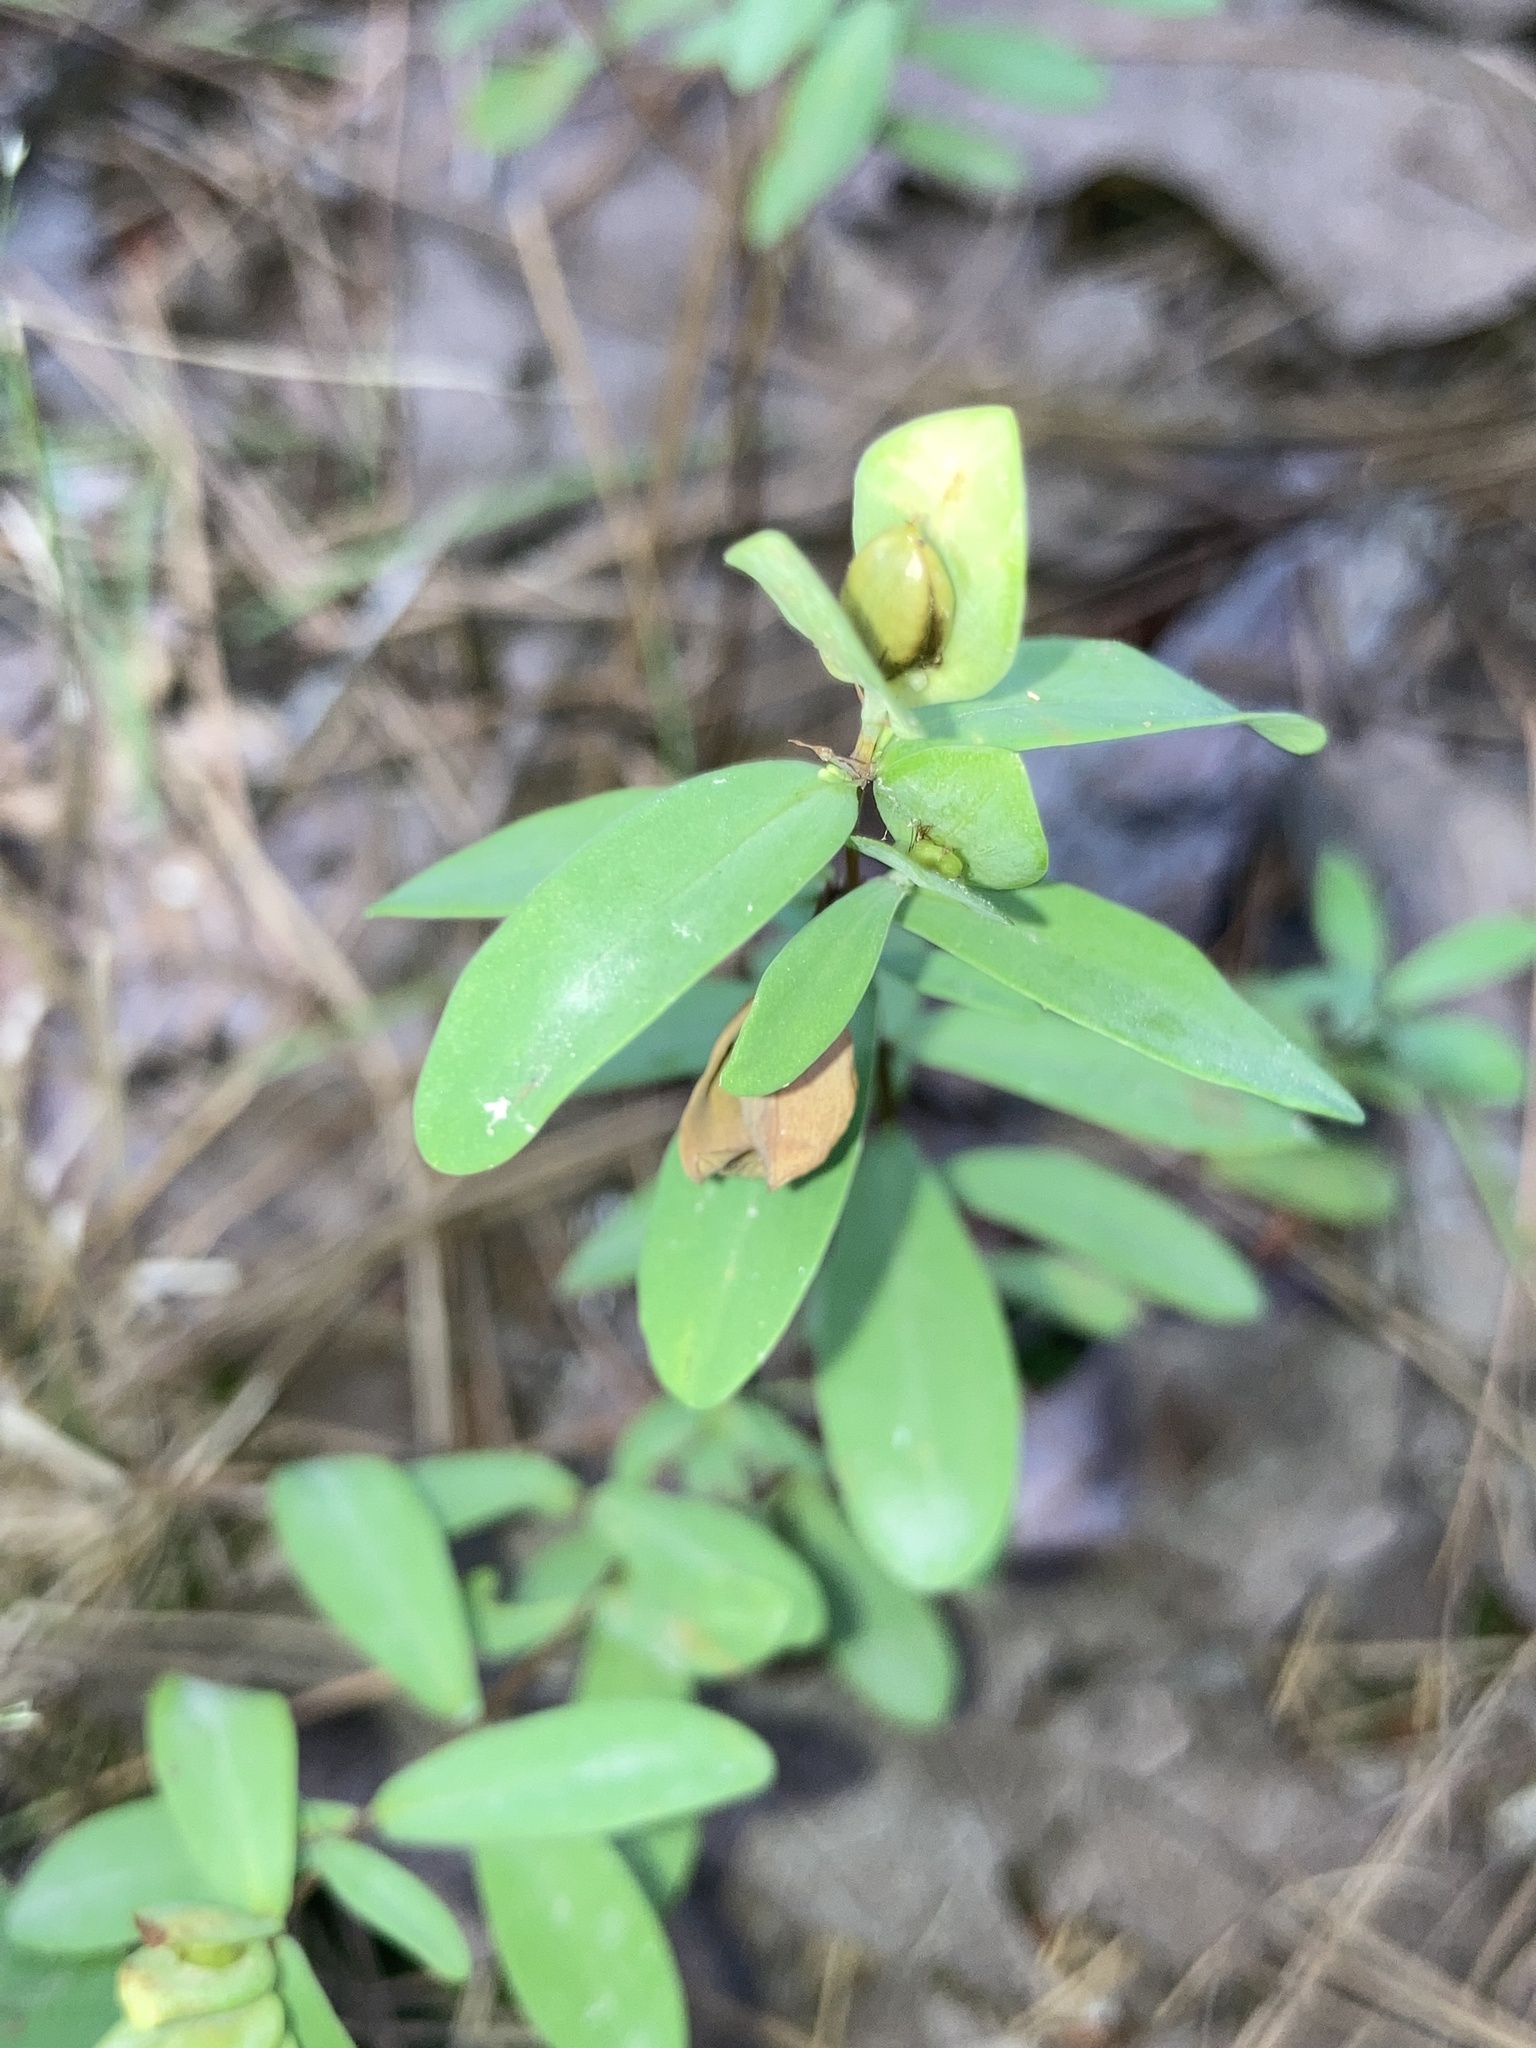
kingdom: Plantae
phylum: Tracheophyta
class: Magnoliopsida
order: Malpighiales
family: Hypericaceae
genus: Hypericum
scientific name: Hypericum hypericoides
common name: St. andrew's cross
